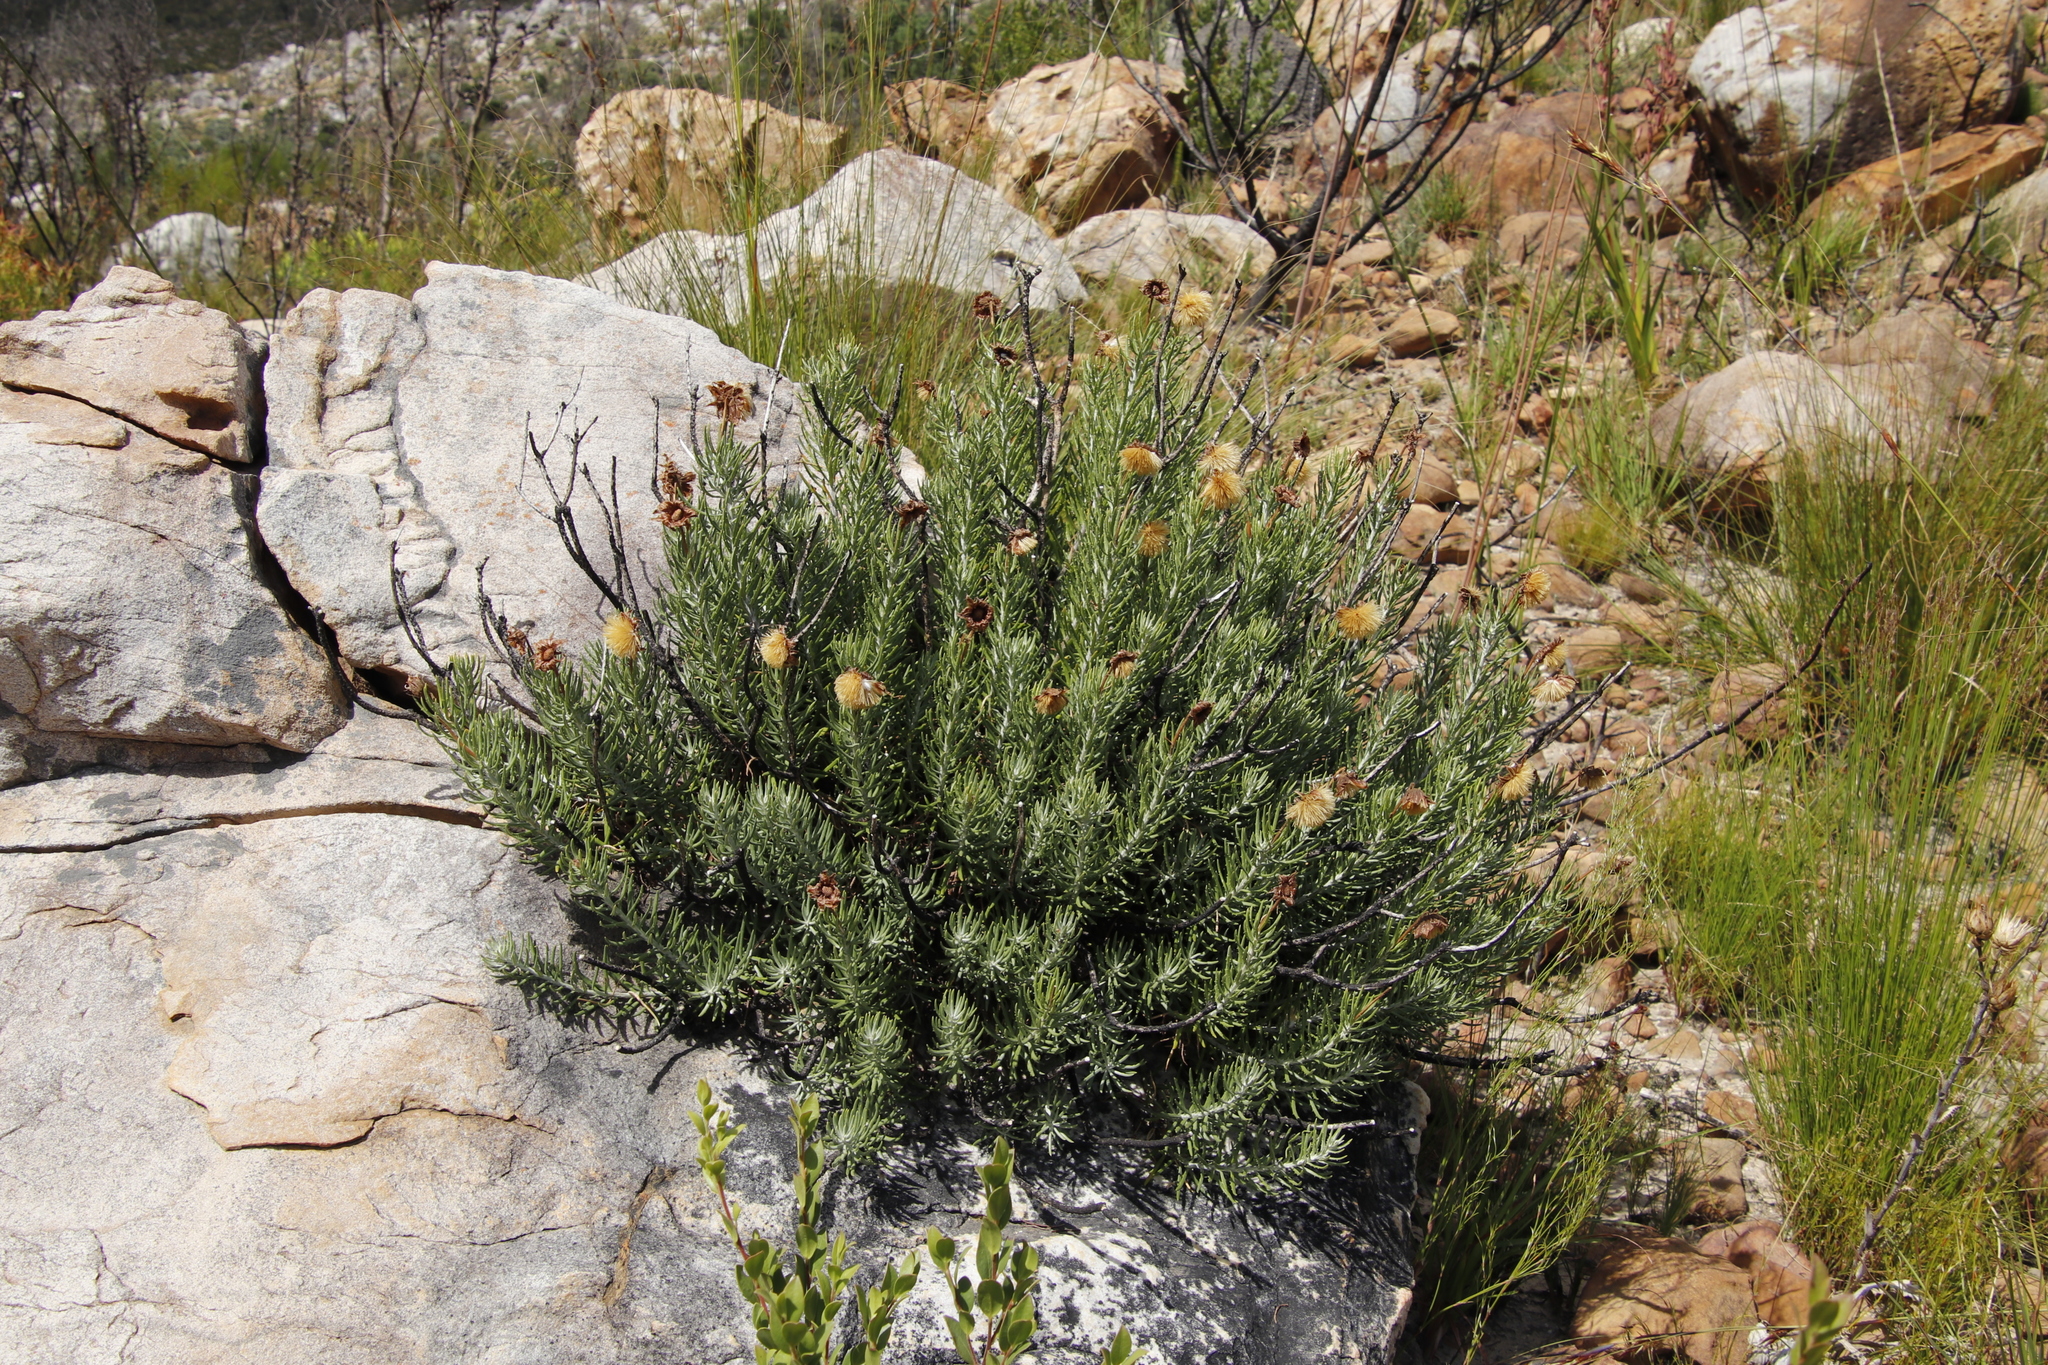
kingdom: Plantae
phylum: Tracheophyta
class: Magnoliopsida
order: Asterales
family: Asteraceae
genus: Heterolepis
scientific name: Heterolepis aliena
